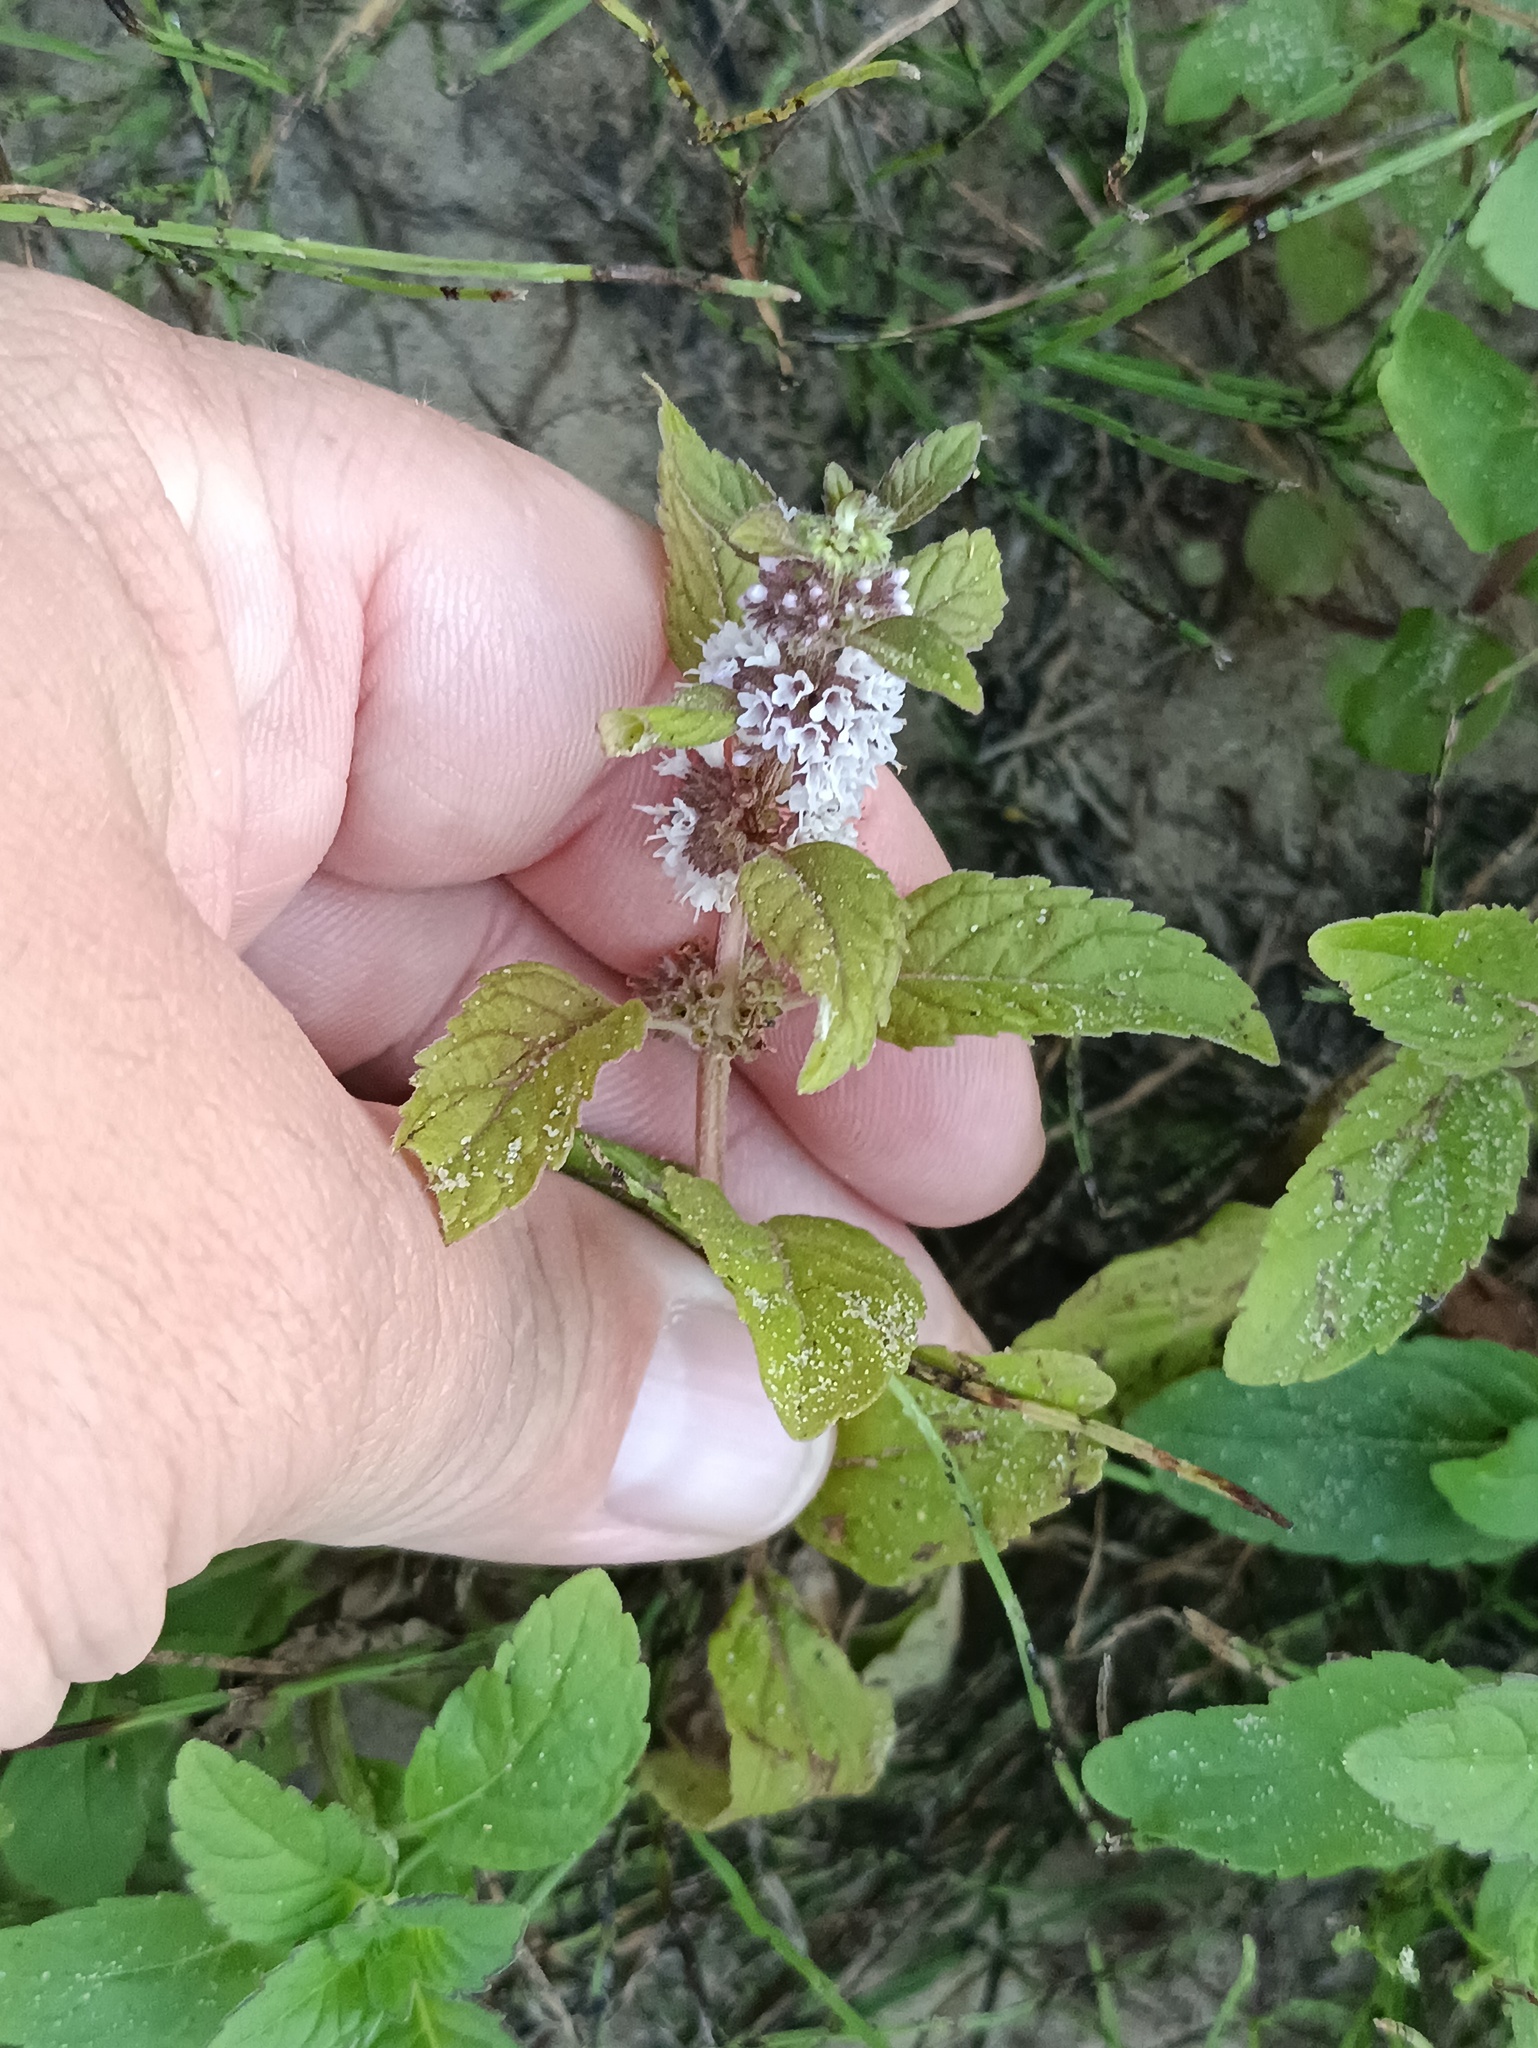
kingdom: Plantae
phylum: Tracheophyta
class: Magnoliopsida
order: Lamiales
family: Lamiaceae
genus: Mentha
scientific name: Mentha arvensis
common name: Corn mint
